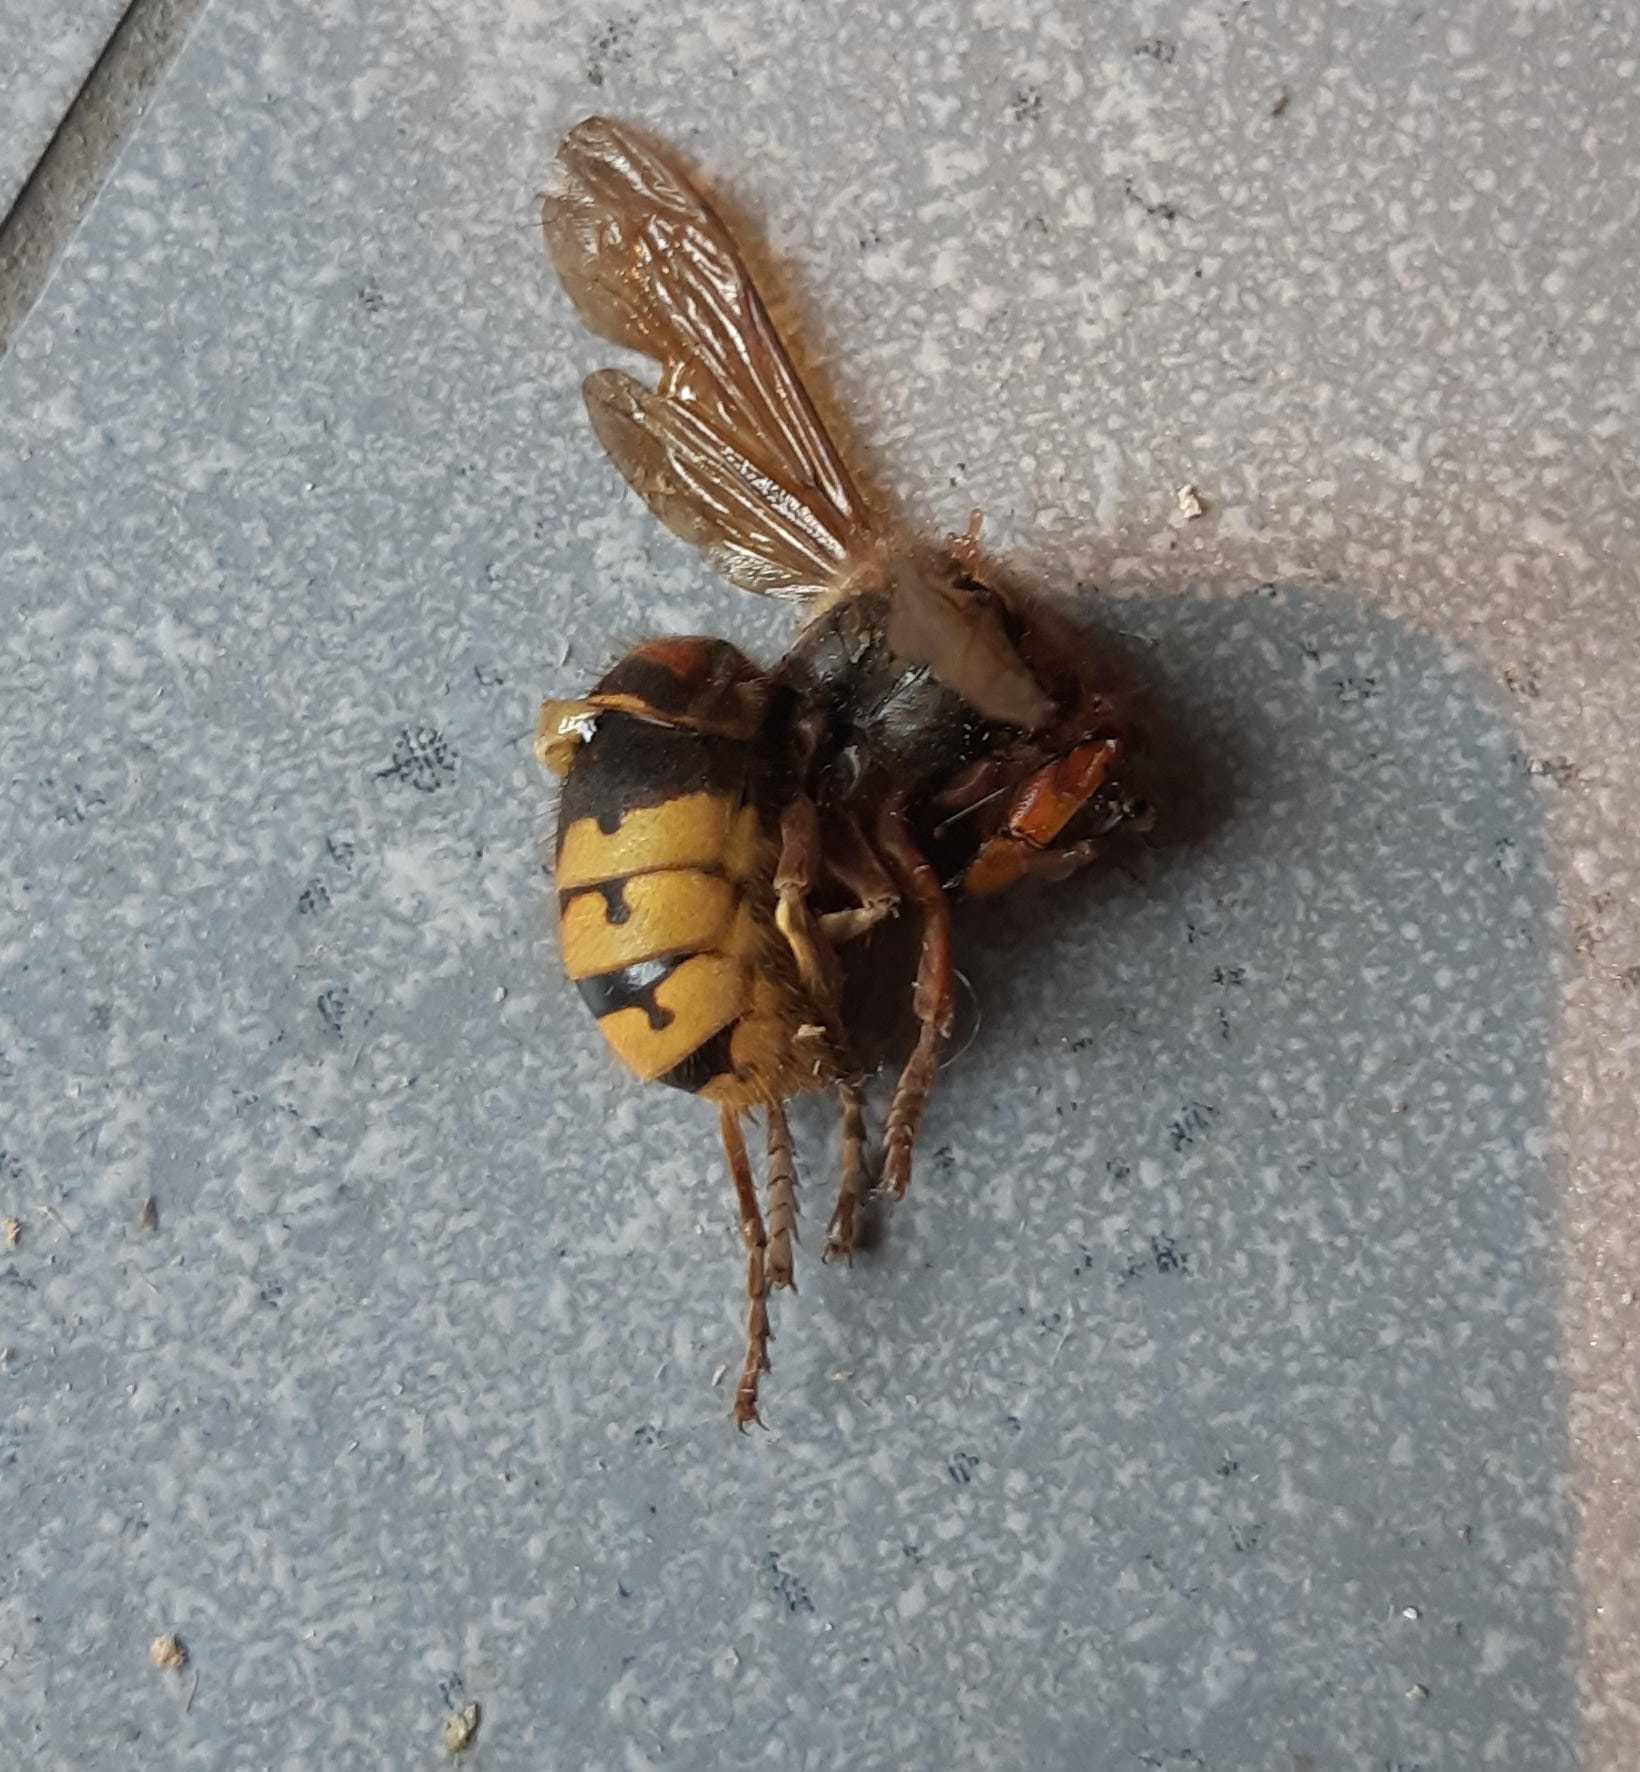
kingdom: Animalia
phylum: Arthropoda
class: Insecta
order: Hymenoptera
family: Vespidae
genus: Vespa
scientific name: Vespa crabro
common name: Hornet
